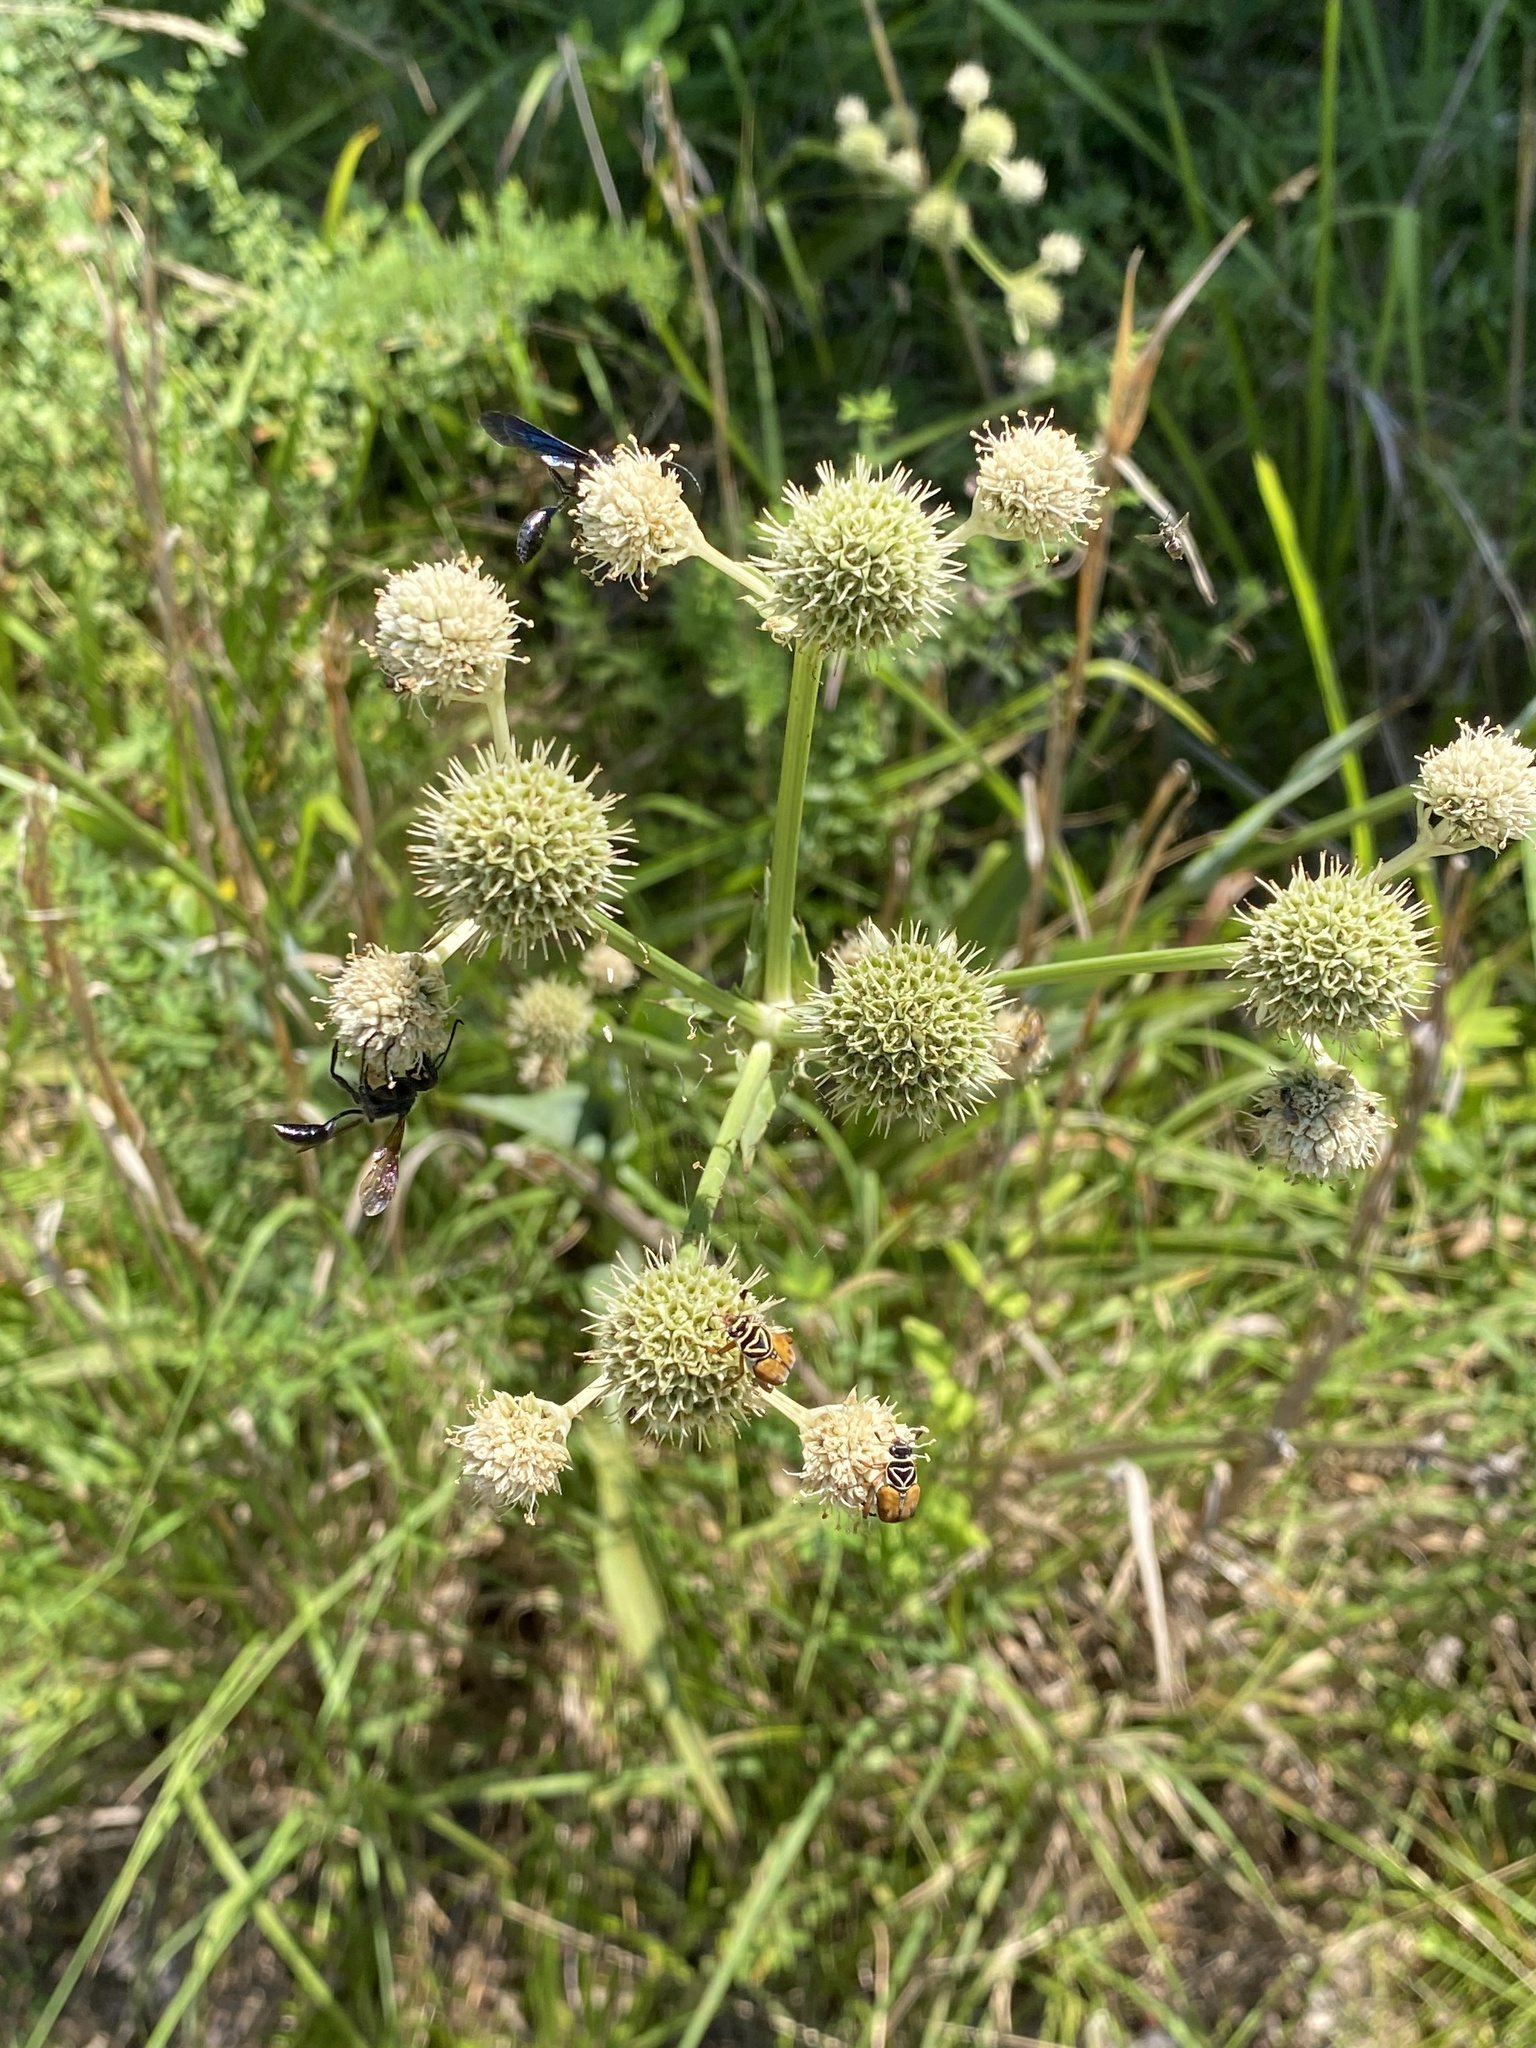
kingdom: Plantae
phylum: Tracheophyta
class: Magnoliopsida
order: Apiales
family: Apiaceae
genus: Eryngium
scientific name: Eryngium yuccifolium
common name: Button eryngo
